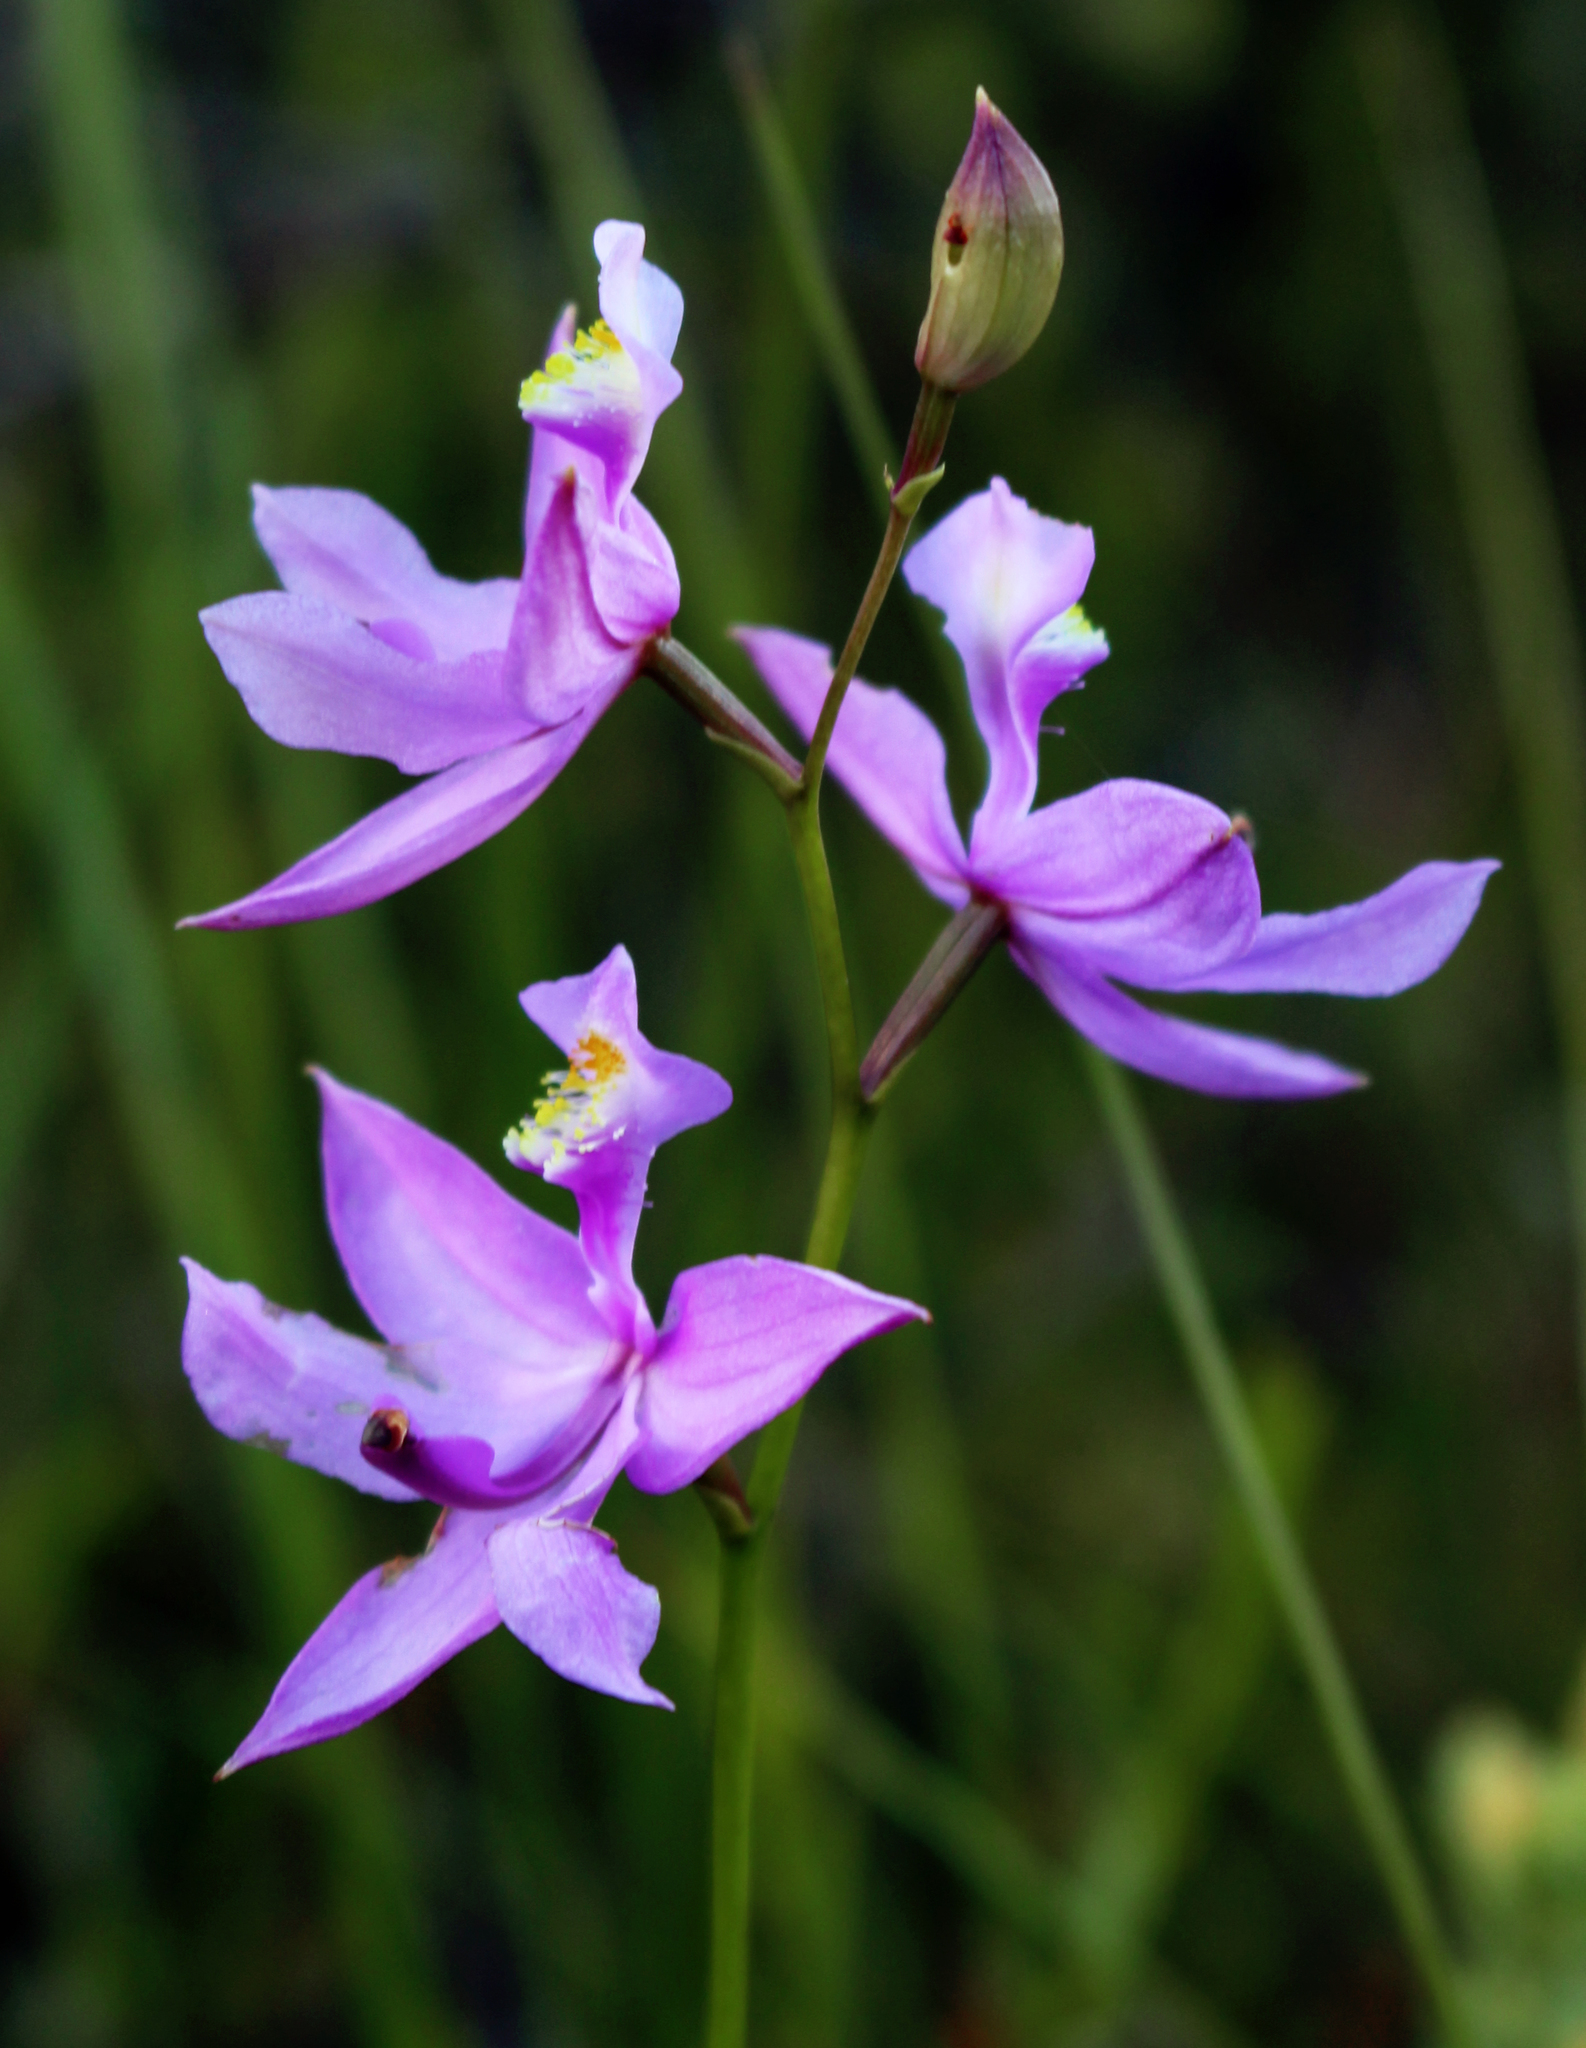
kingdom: Plantae
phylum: Tracheophyta
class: Liliopsida
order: Asparagales
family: Orchidaceae
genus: Calopogon
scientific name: Calopogon tuberosus
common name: Grass-pink
